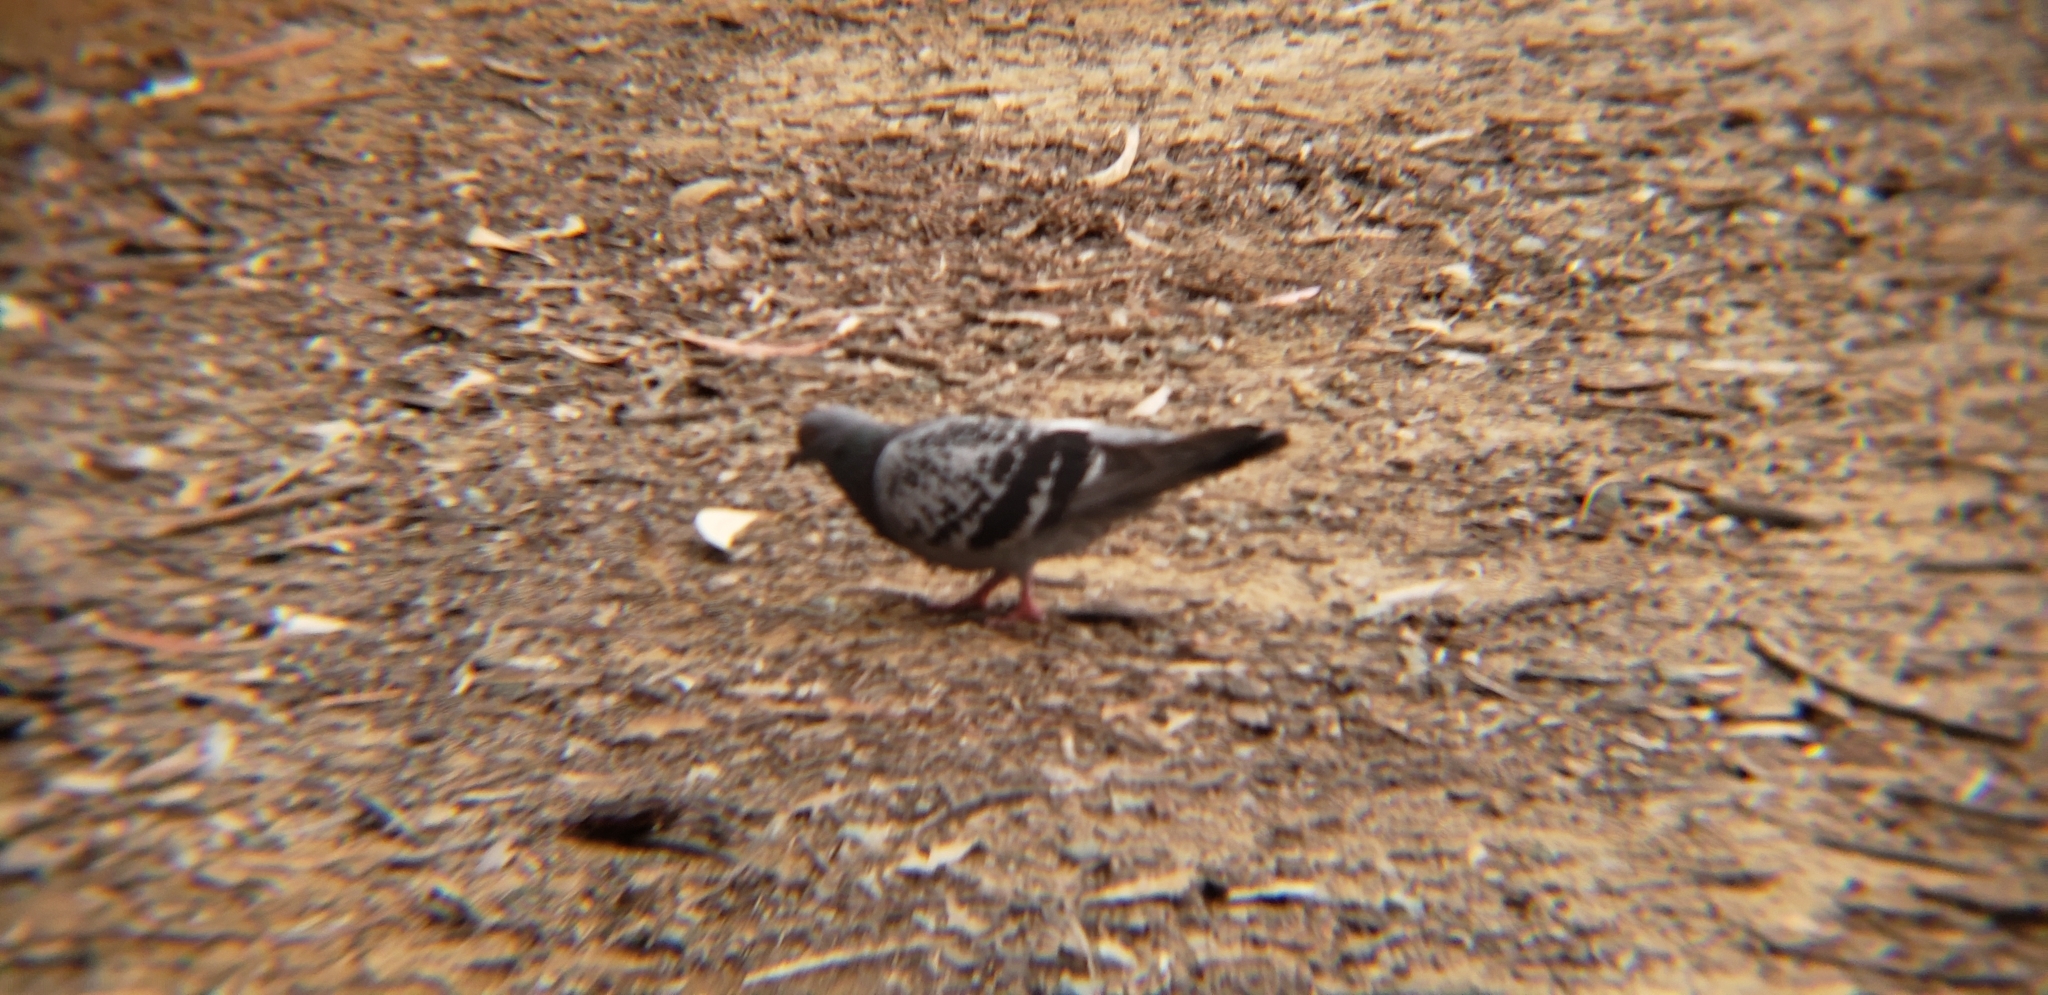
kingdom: Animalia
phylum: Chordata
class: Aves
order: Columbiformes
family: Columbidae
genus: Columba
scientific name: Columba livia
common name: Rock pigeon
